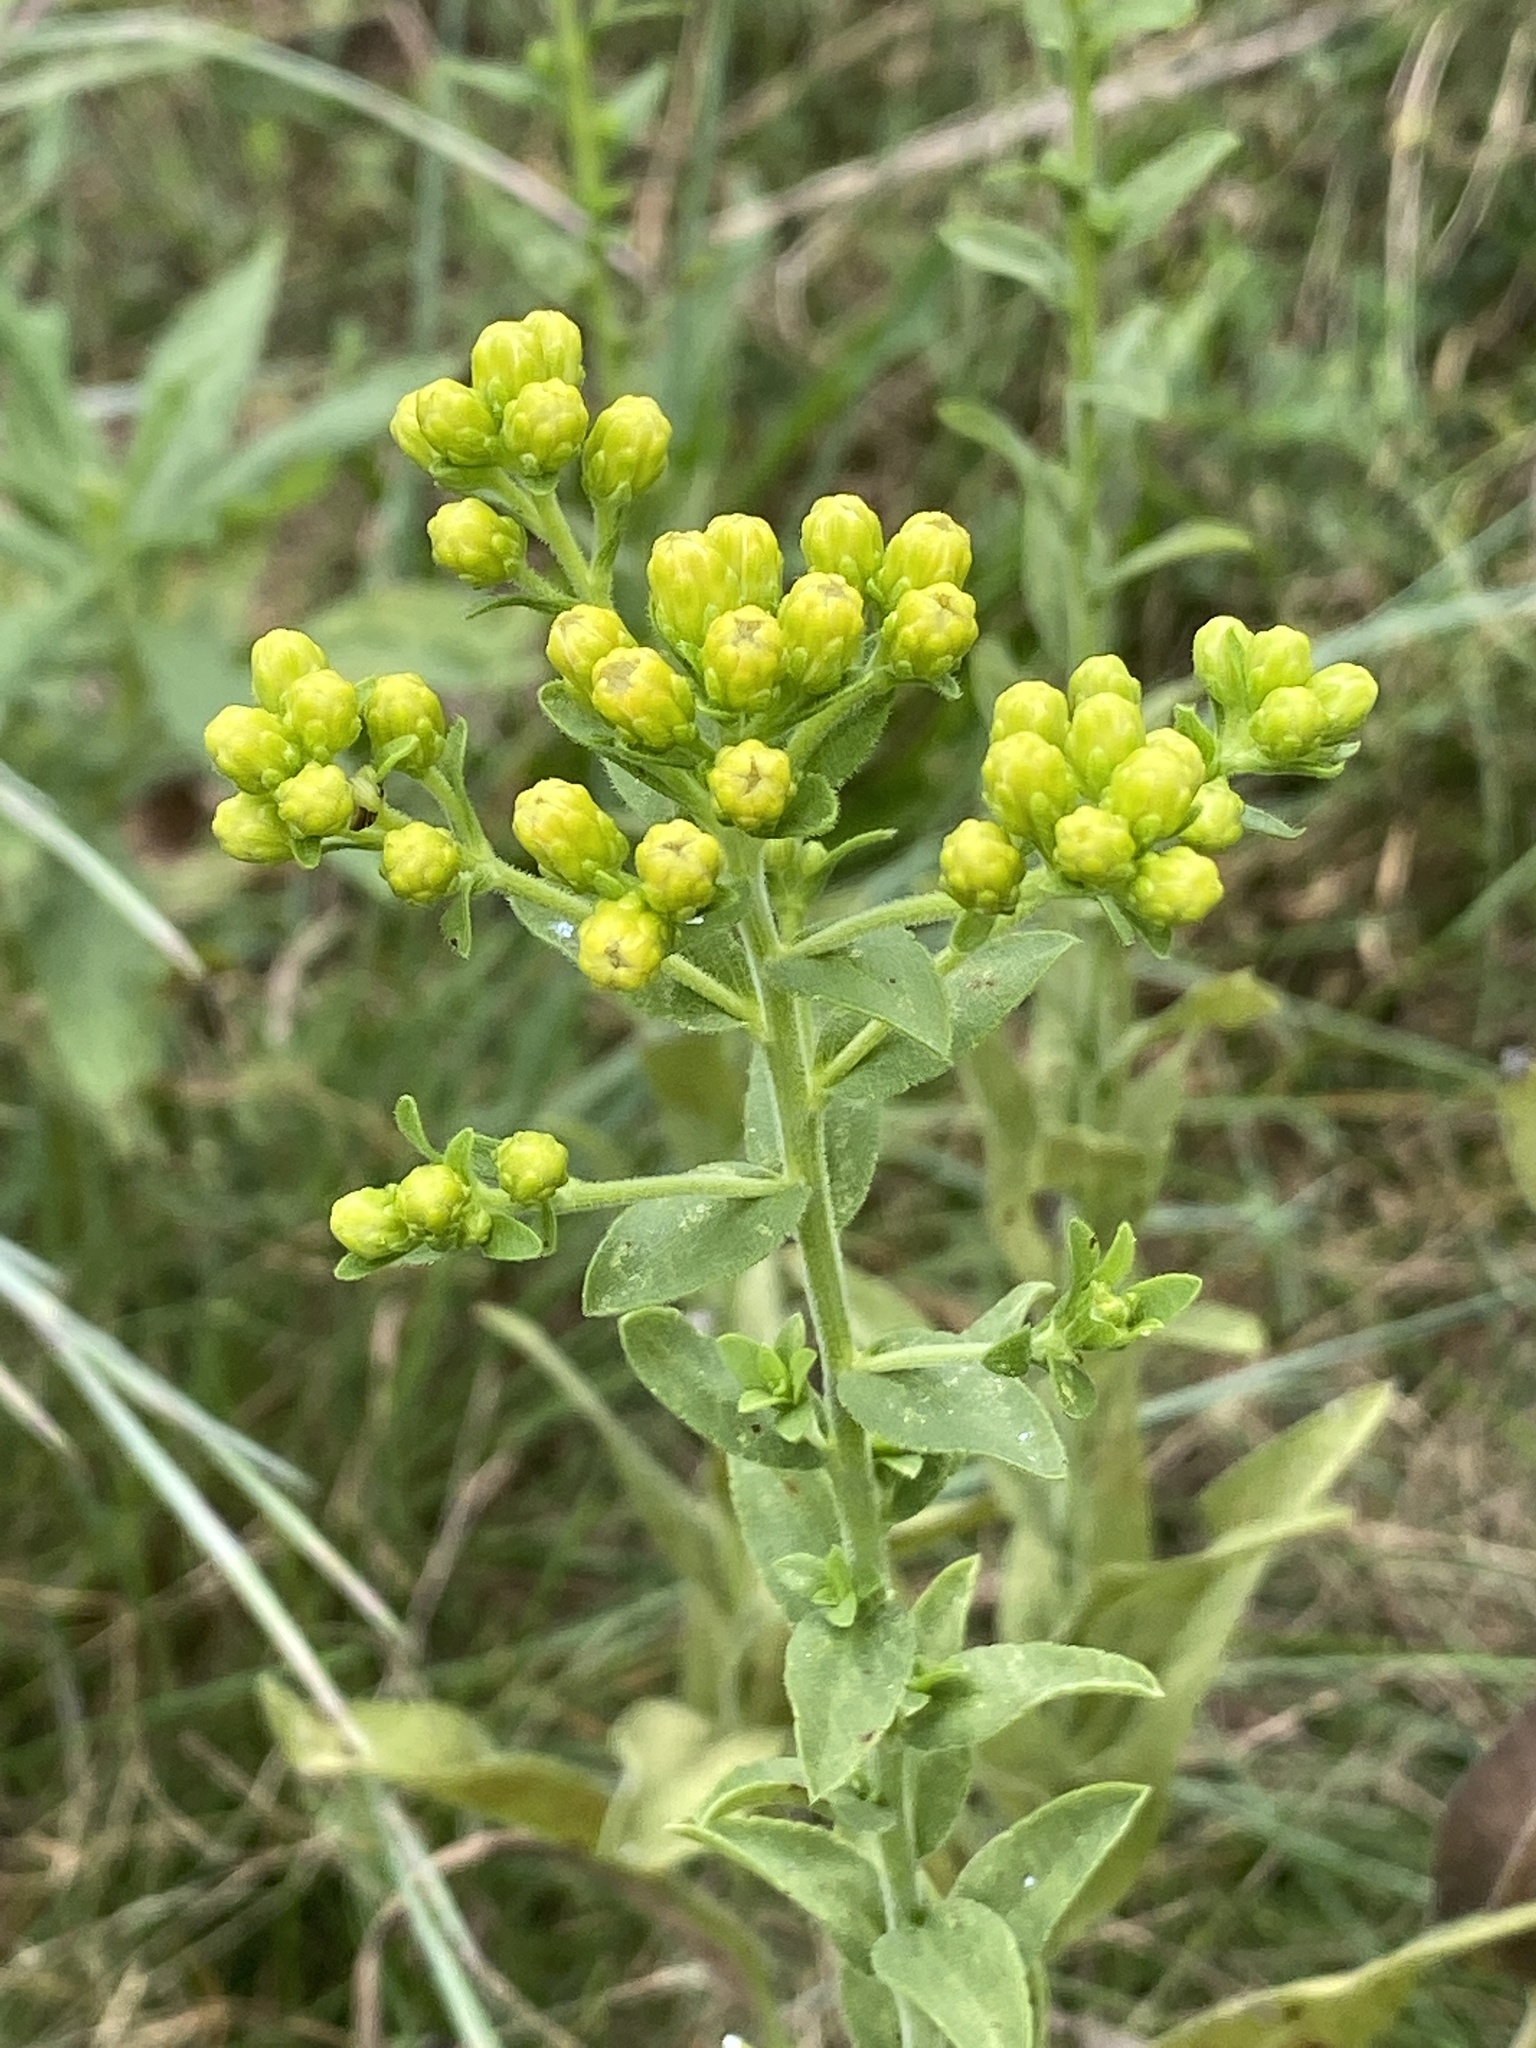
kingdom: Plantae
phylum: Tracheophyta
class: Magnoliopsida
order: Asterales
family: Asteraceae
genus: Solidago
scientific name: Solidago rigida
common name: Rigid goldenrod
